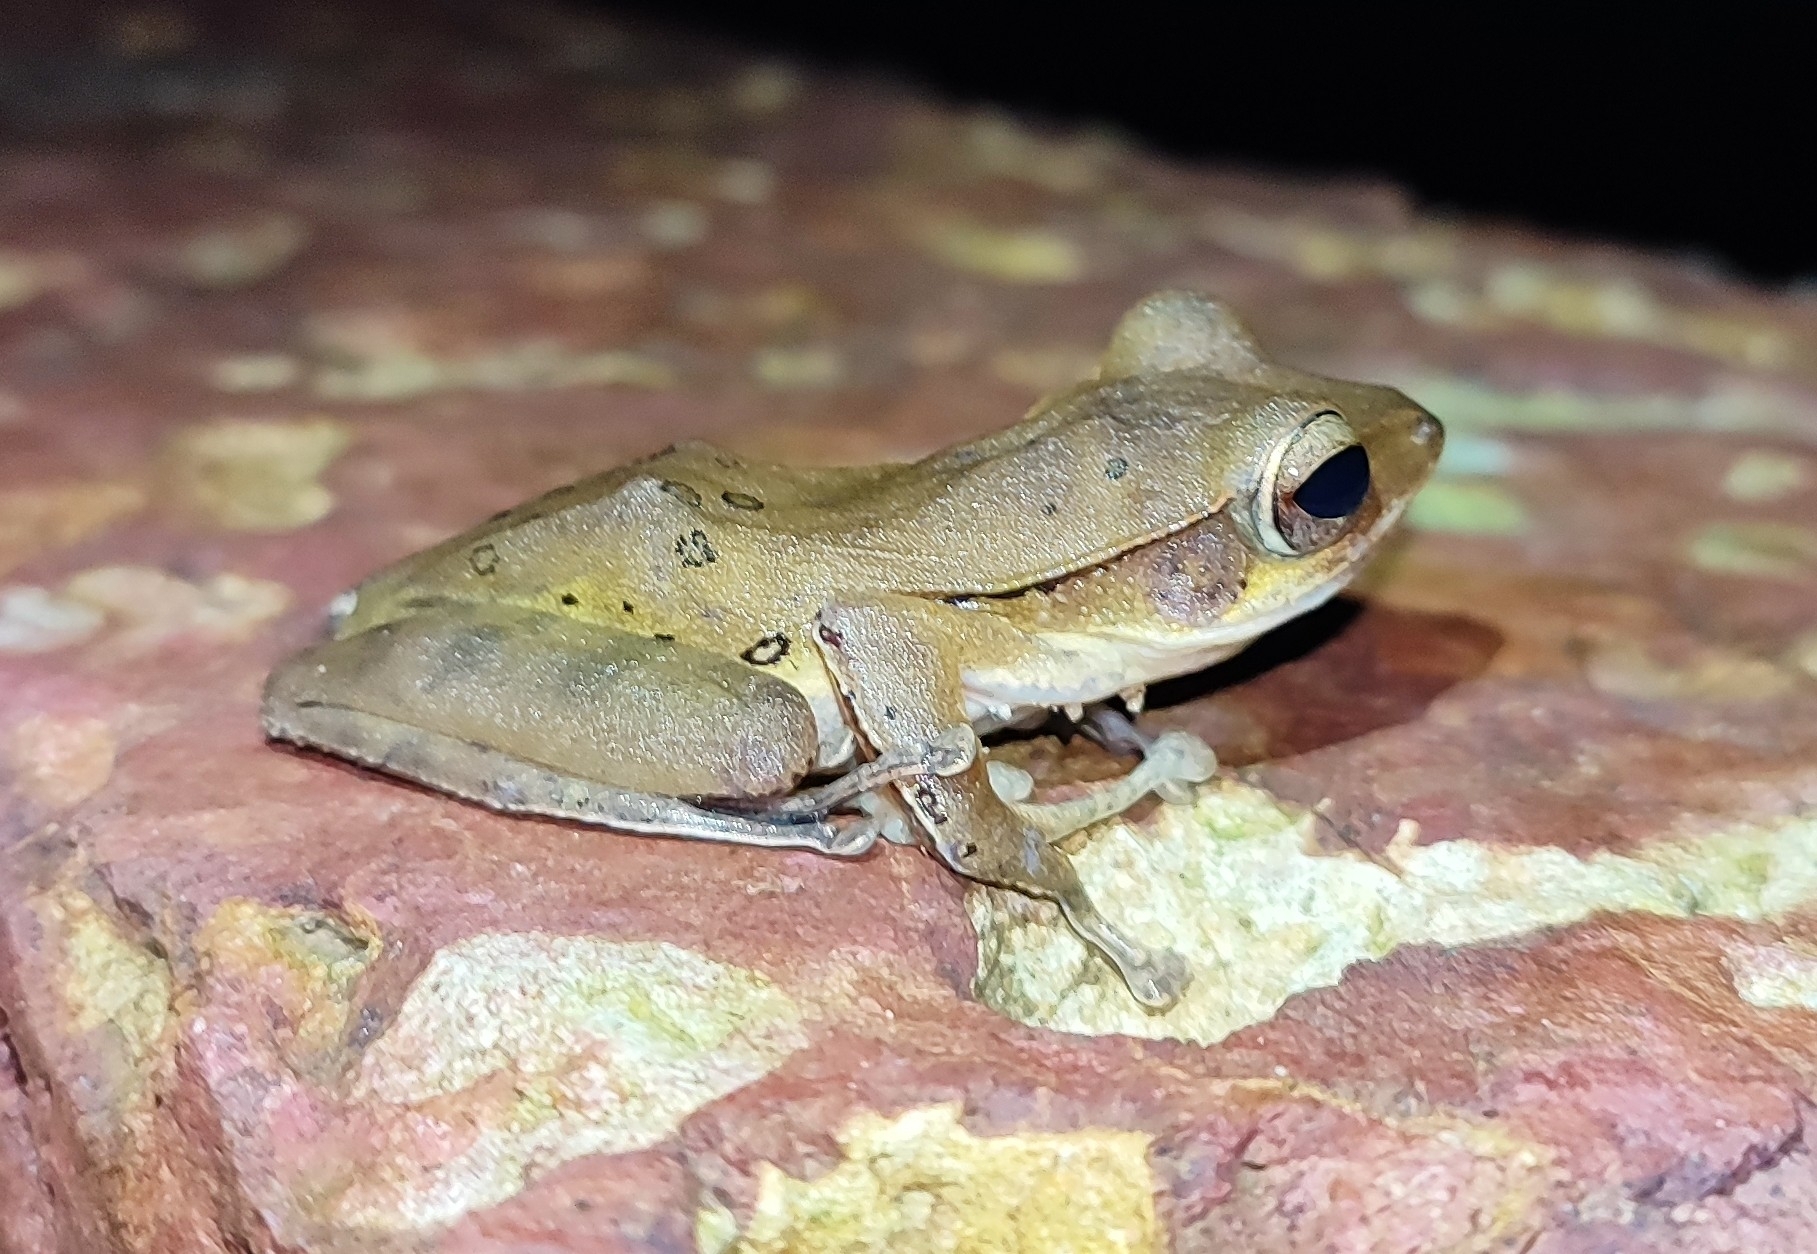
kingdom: Animalia
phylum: Chordata
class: Amphibia
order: Anura
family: Rhacophoridae
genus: Polypedates
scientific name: Polypedates maculatus
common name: Himalayan tree frog
